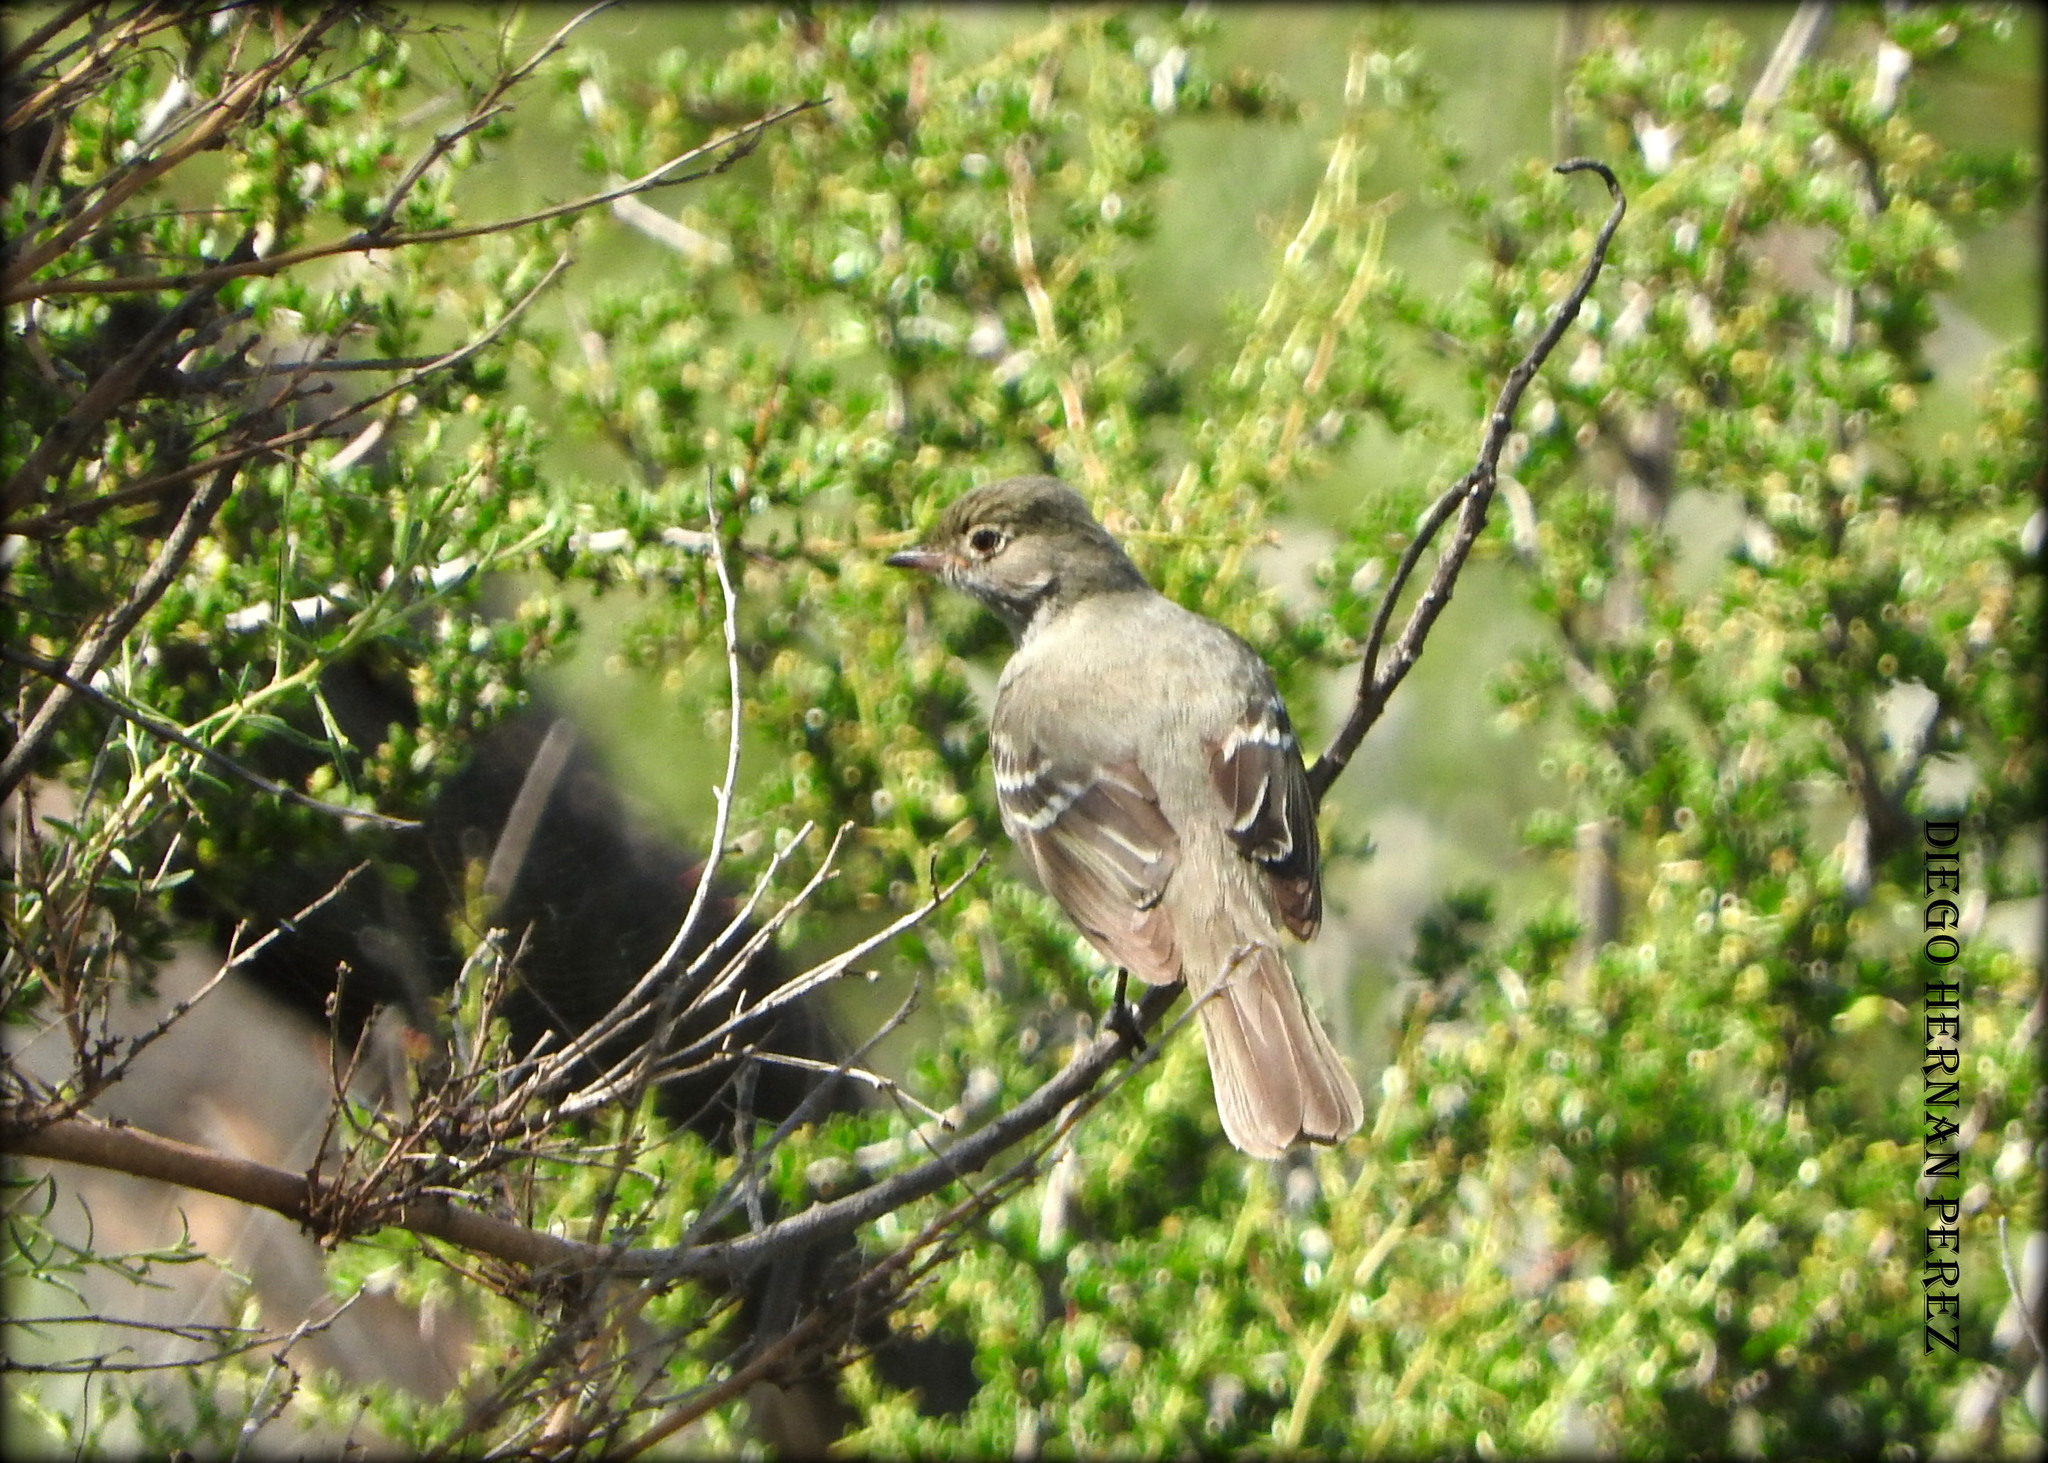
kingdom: Animalia
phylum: Chordata
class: Aves
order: Passeriformes
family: Tyrannidae
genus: Elaenia
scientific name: Elaenia parvirostris
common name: Small-billed elaenia
